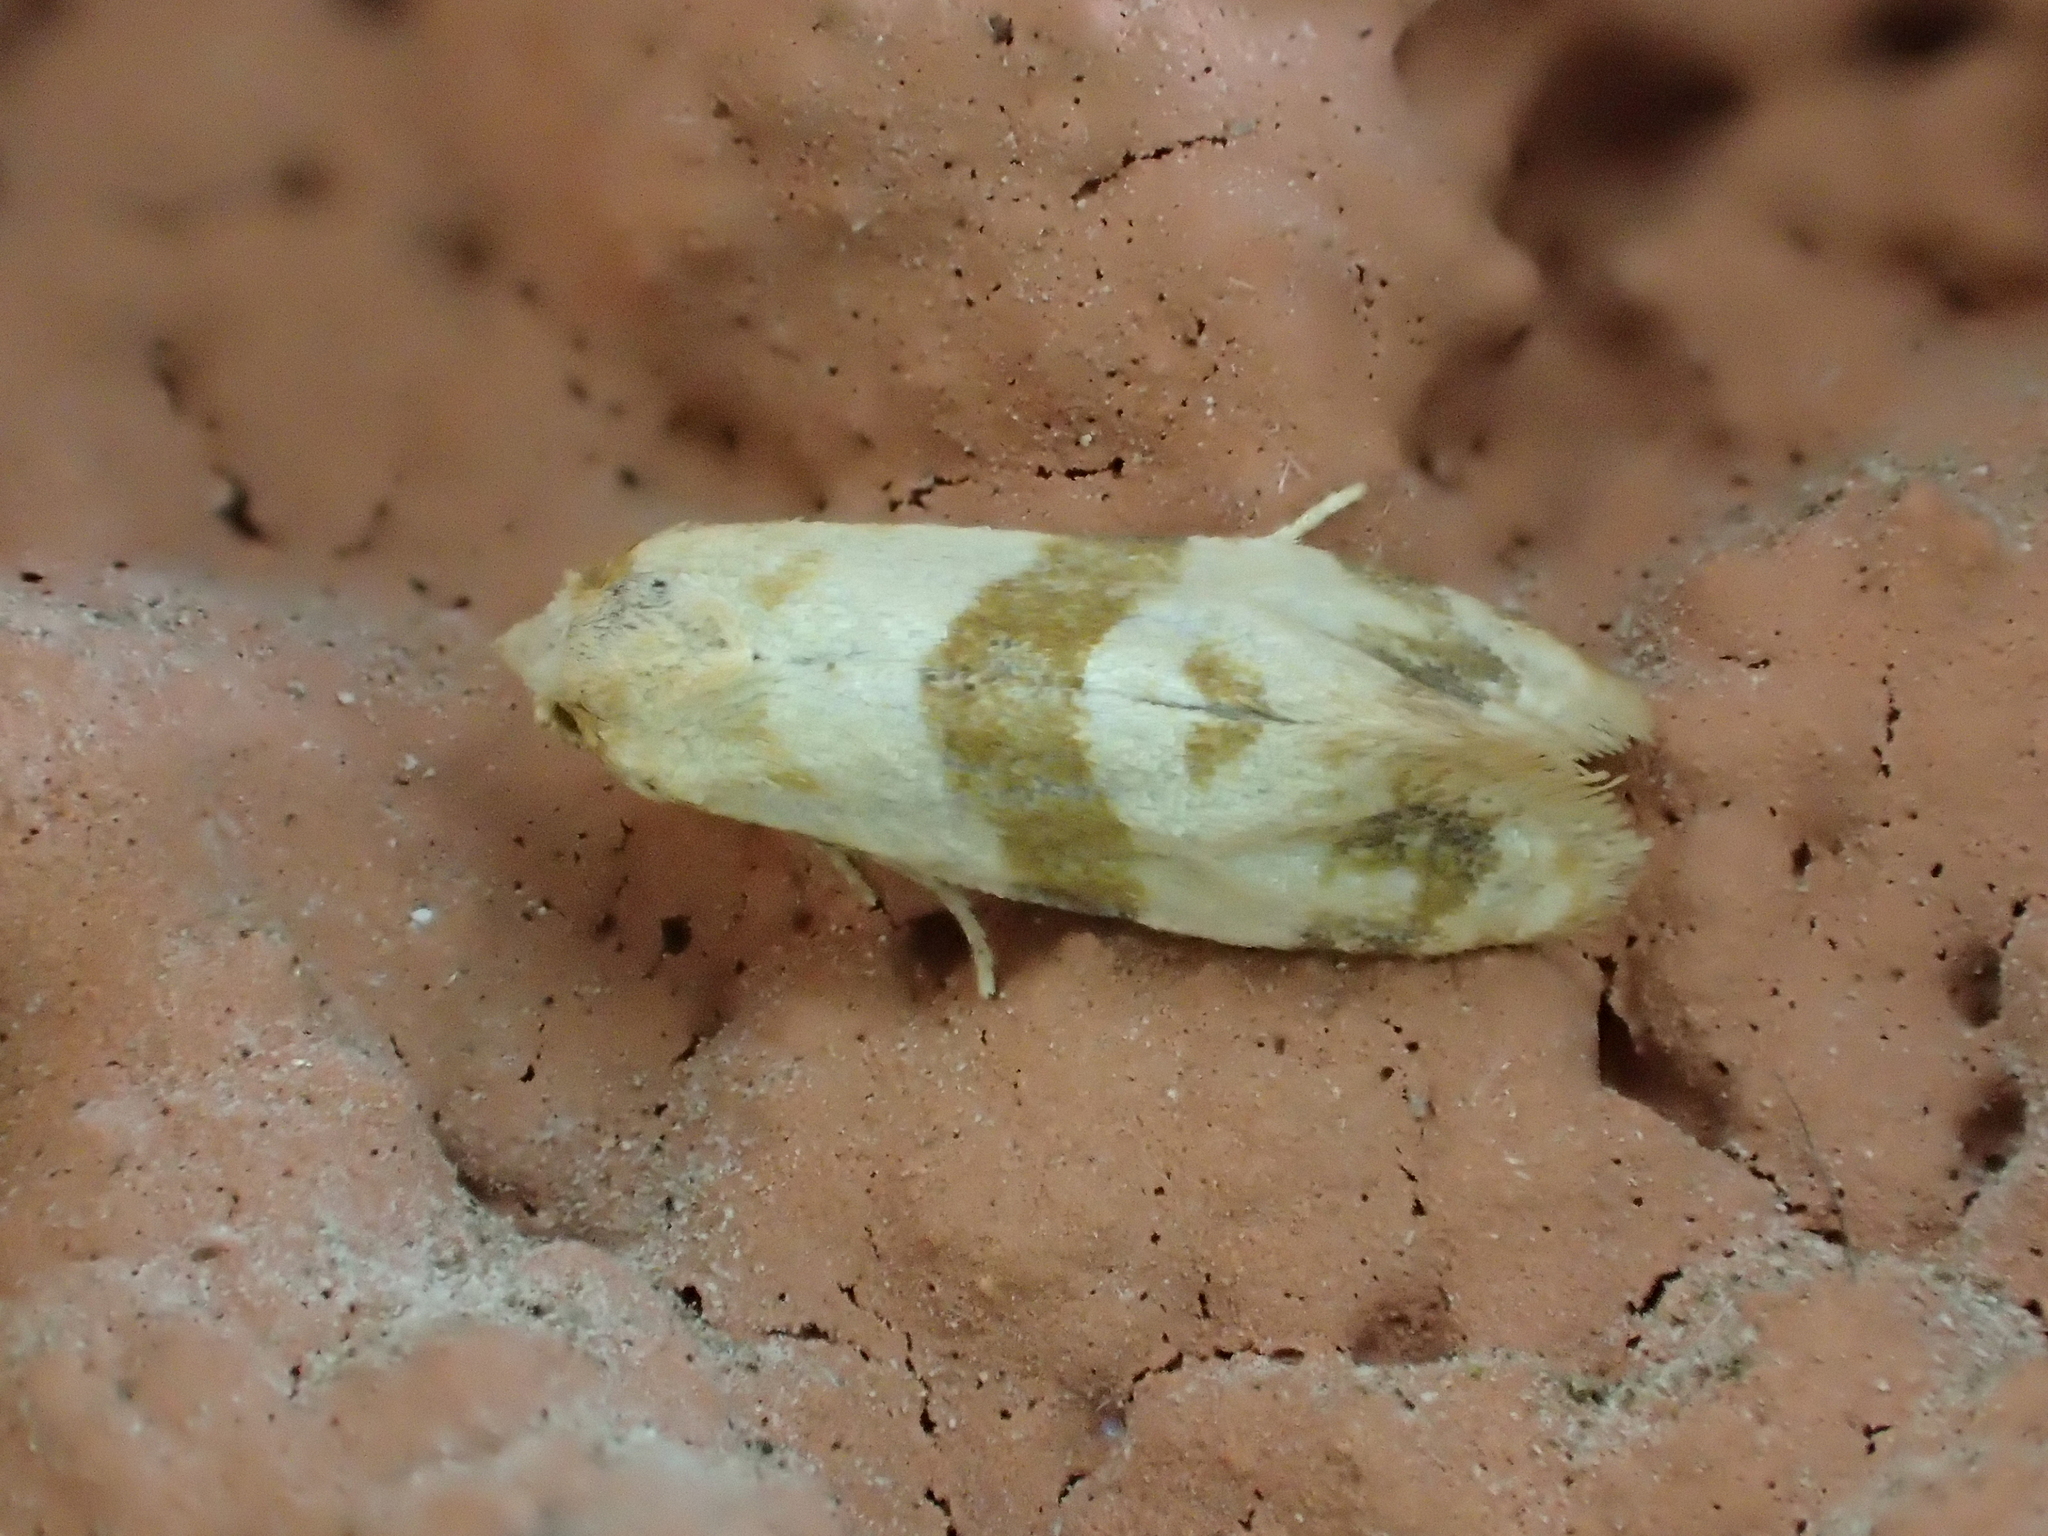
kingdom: Animalia
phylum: Arthropoda
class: Insecta
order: Lepidoptera
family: Tortricidae
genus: Phalonidia
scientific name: Phalonidia contractana
